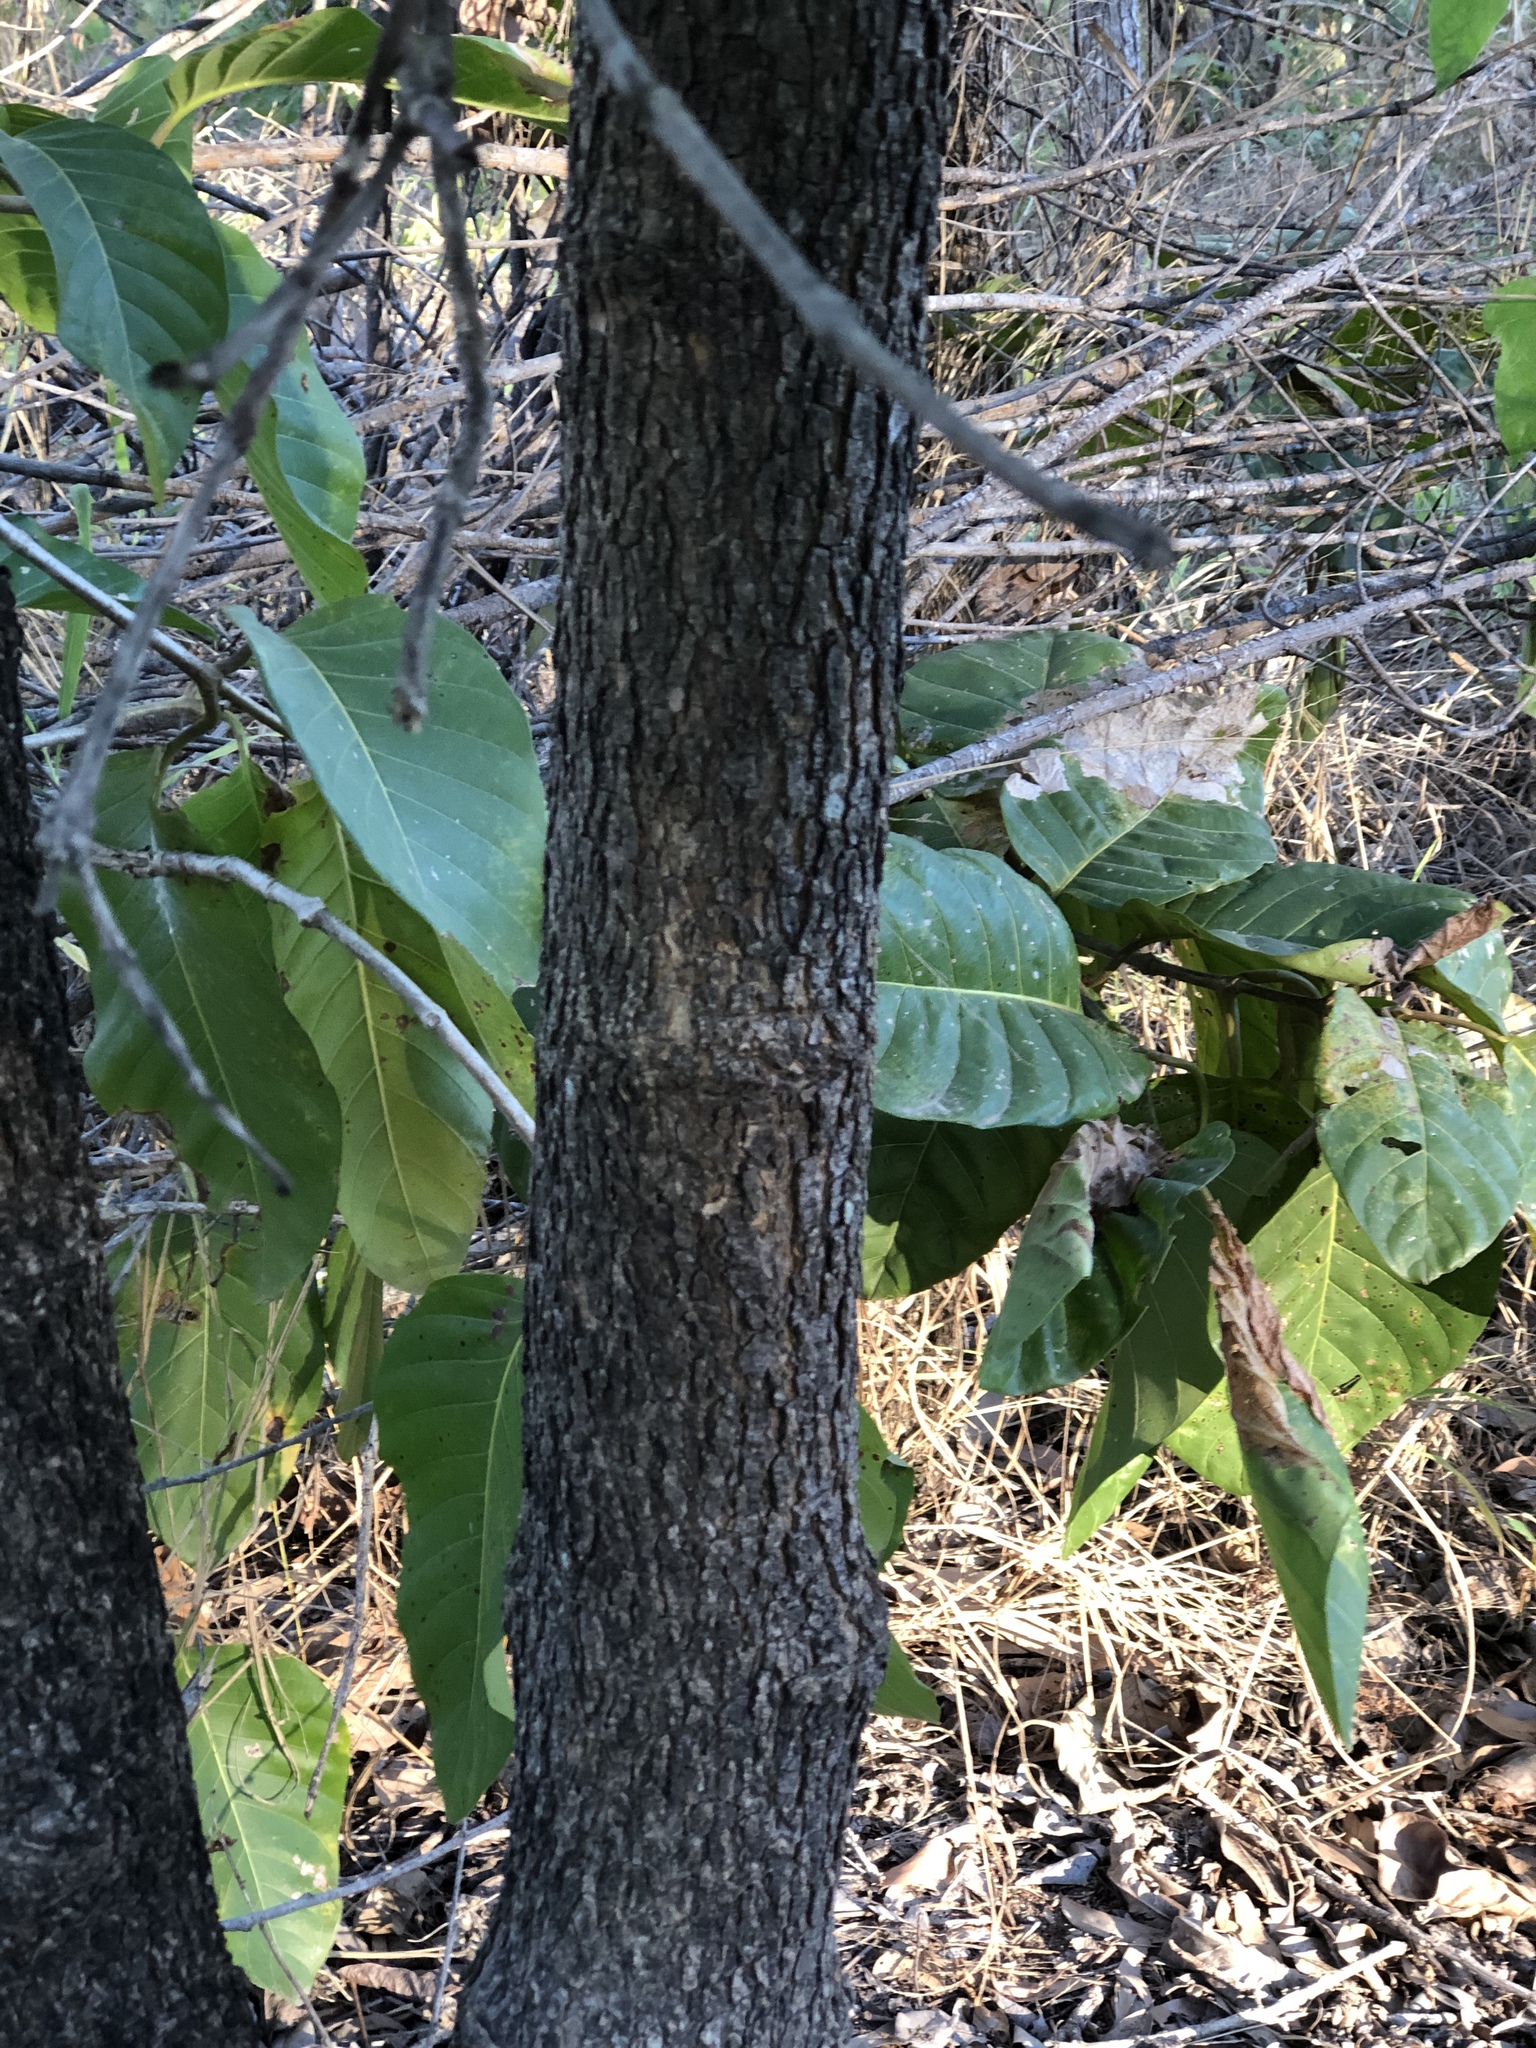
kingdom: Plantae
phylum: Tracheophyta
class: Magnoliopsida
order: Gentianales
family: Rubiaceae
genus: Nauclea
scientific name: Nauclea orientalis
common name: Leichhardt-pine
